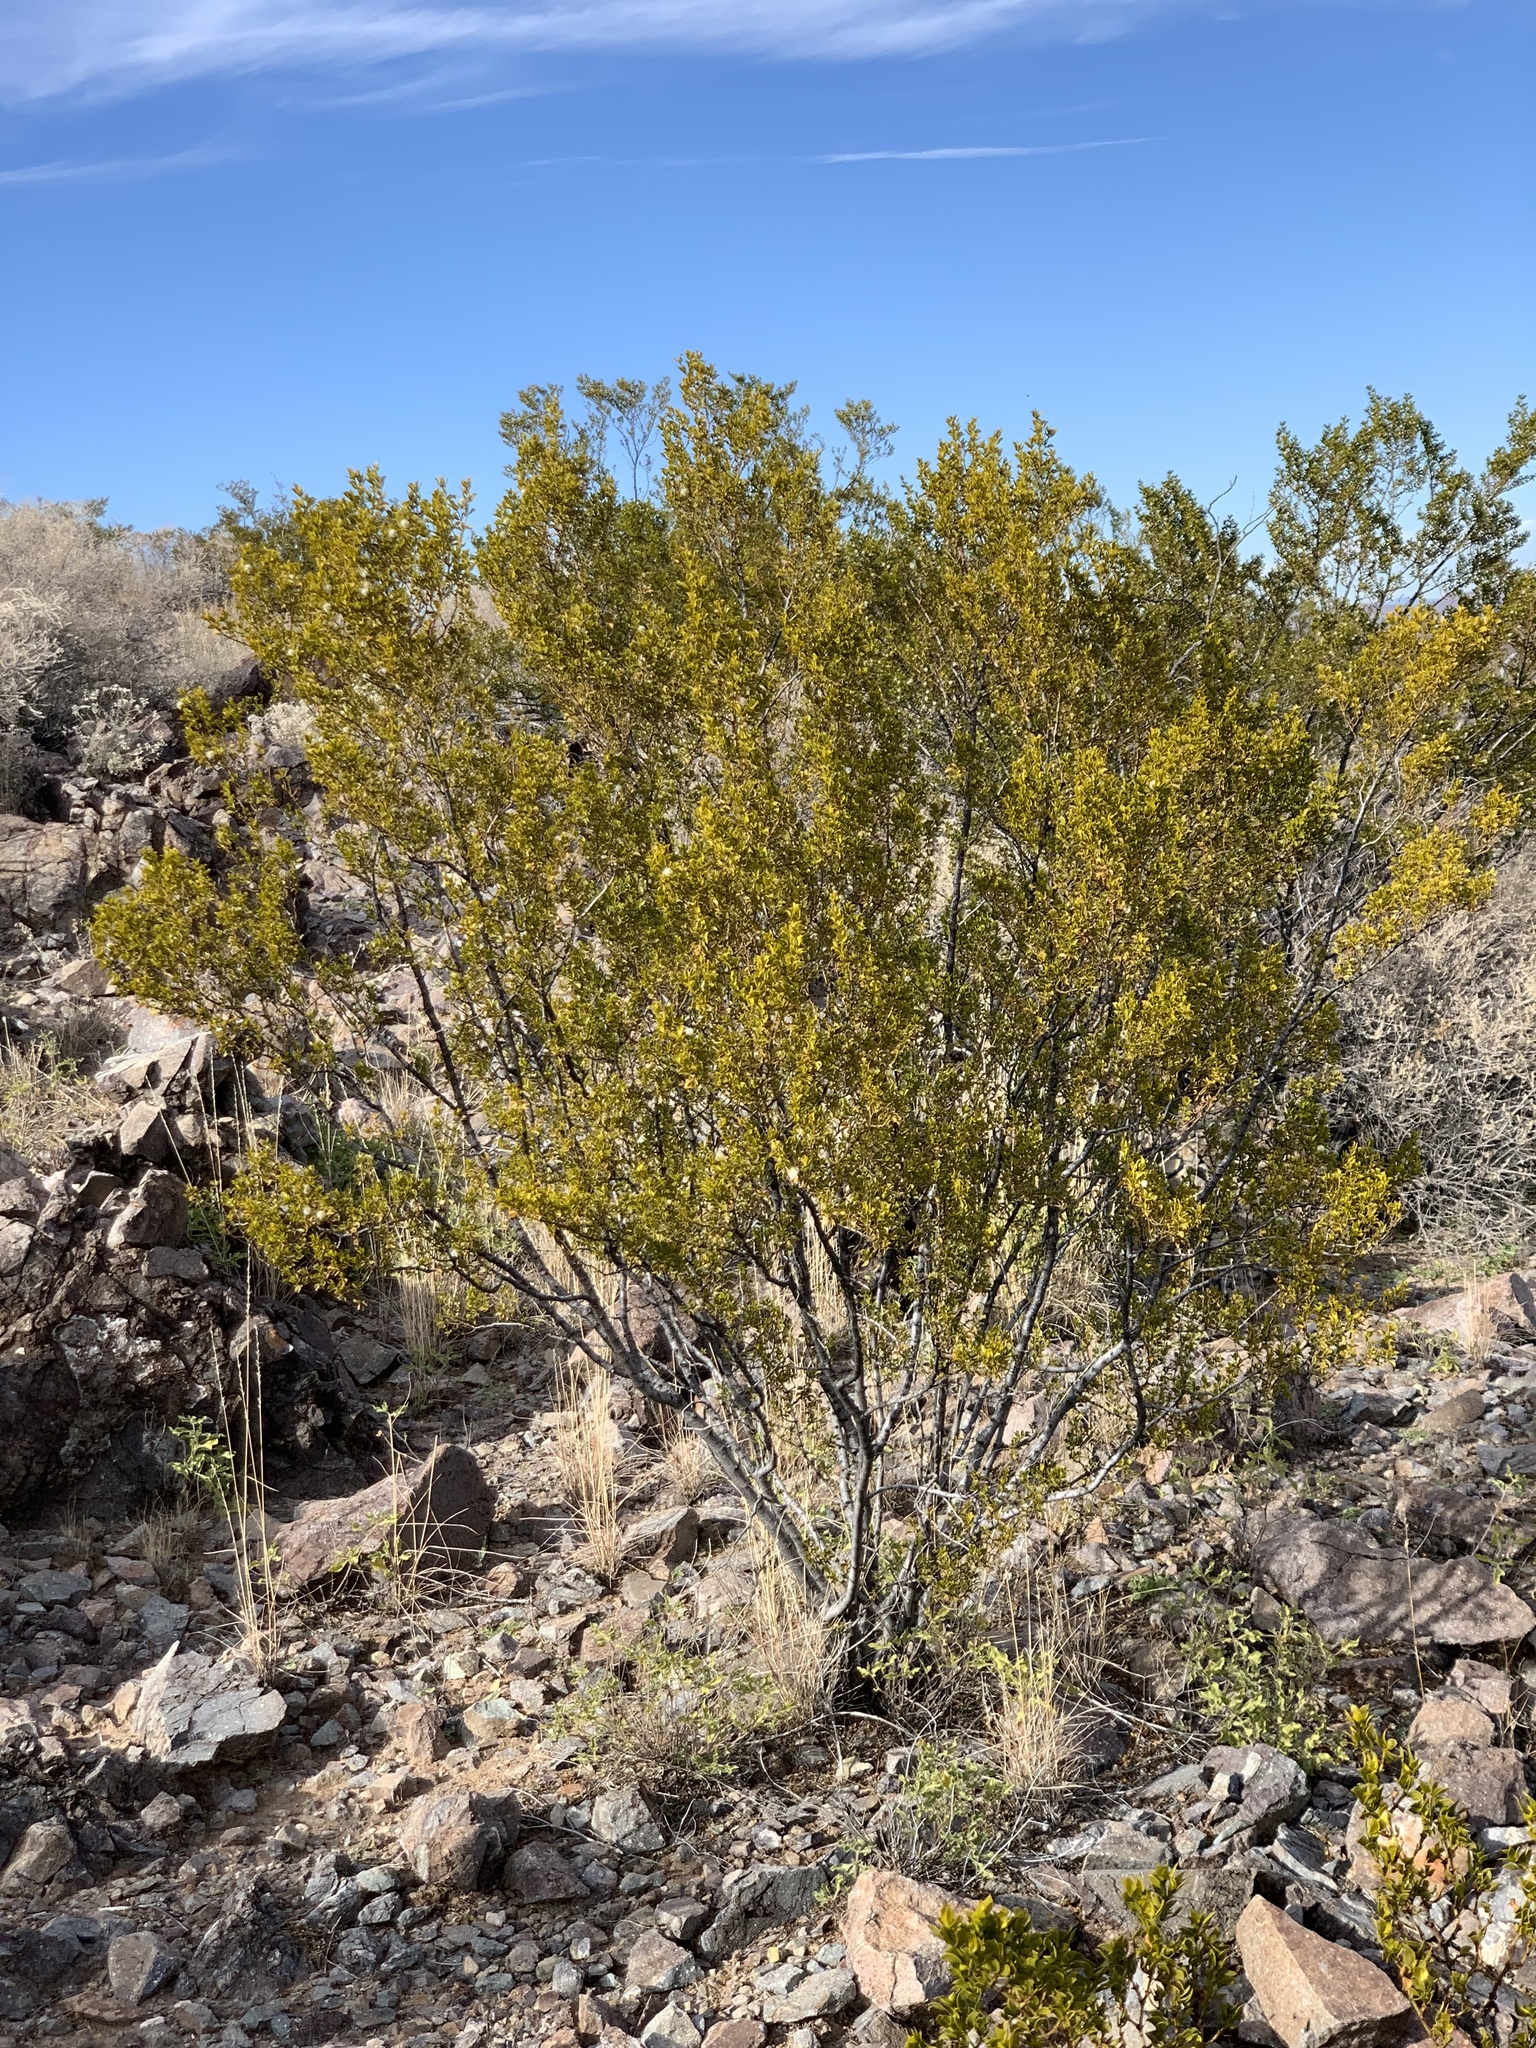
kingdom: Plantae
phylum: Tracheophyta
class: Magnoliopsida
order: Zygophyllales
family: Zygophyllaceae
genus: Larrea
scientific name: Larrea tridentata
